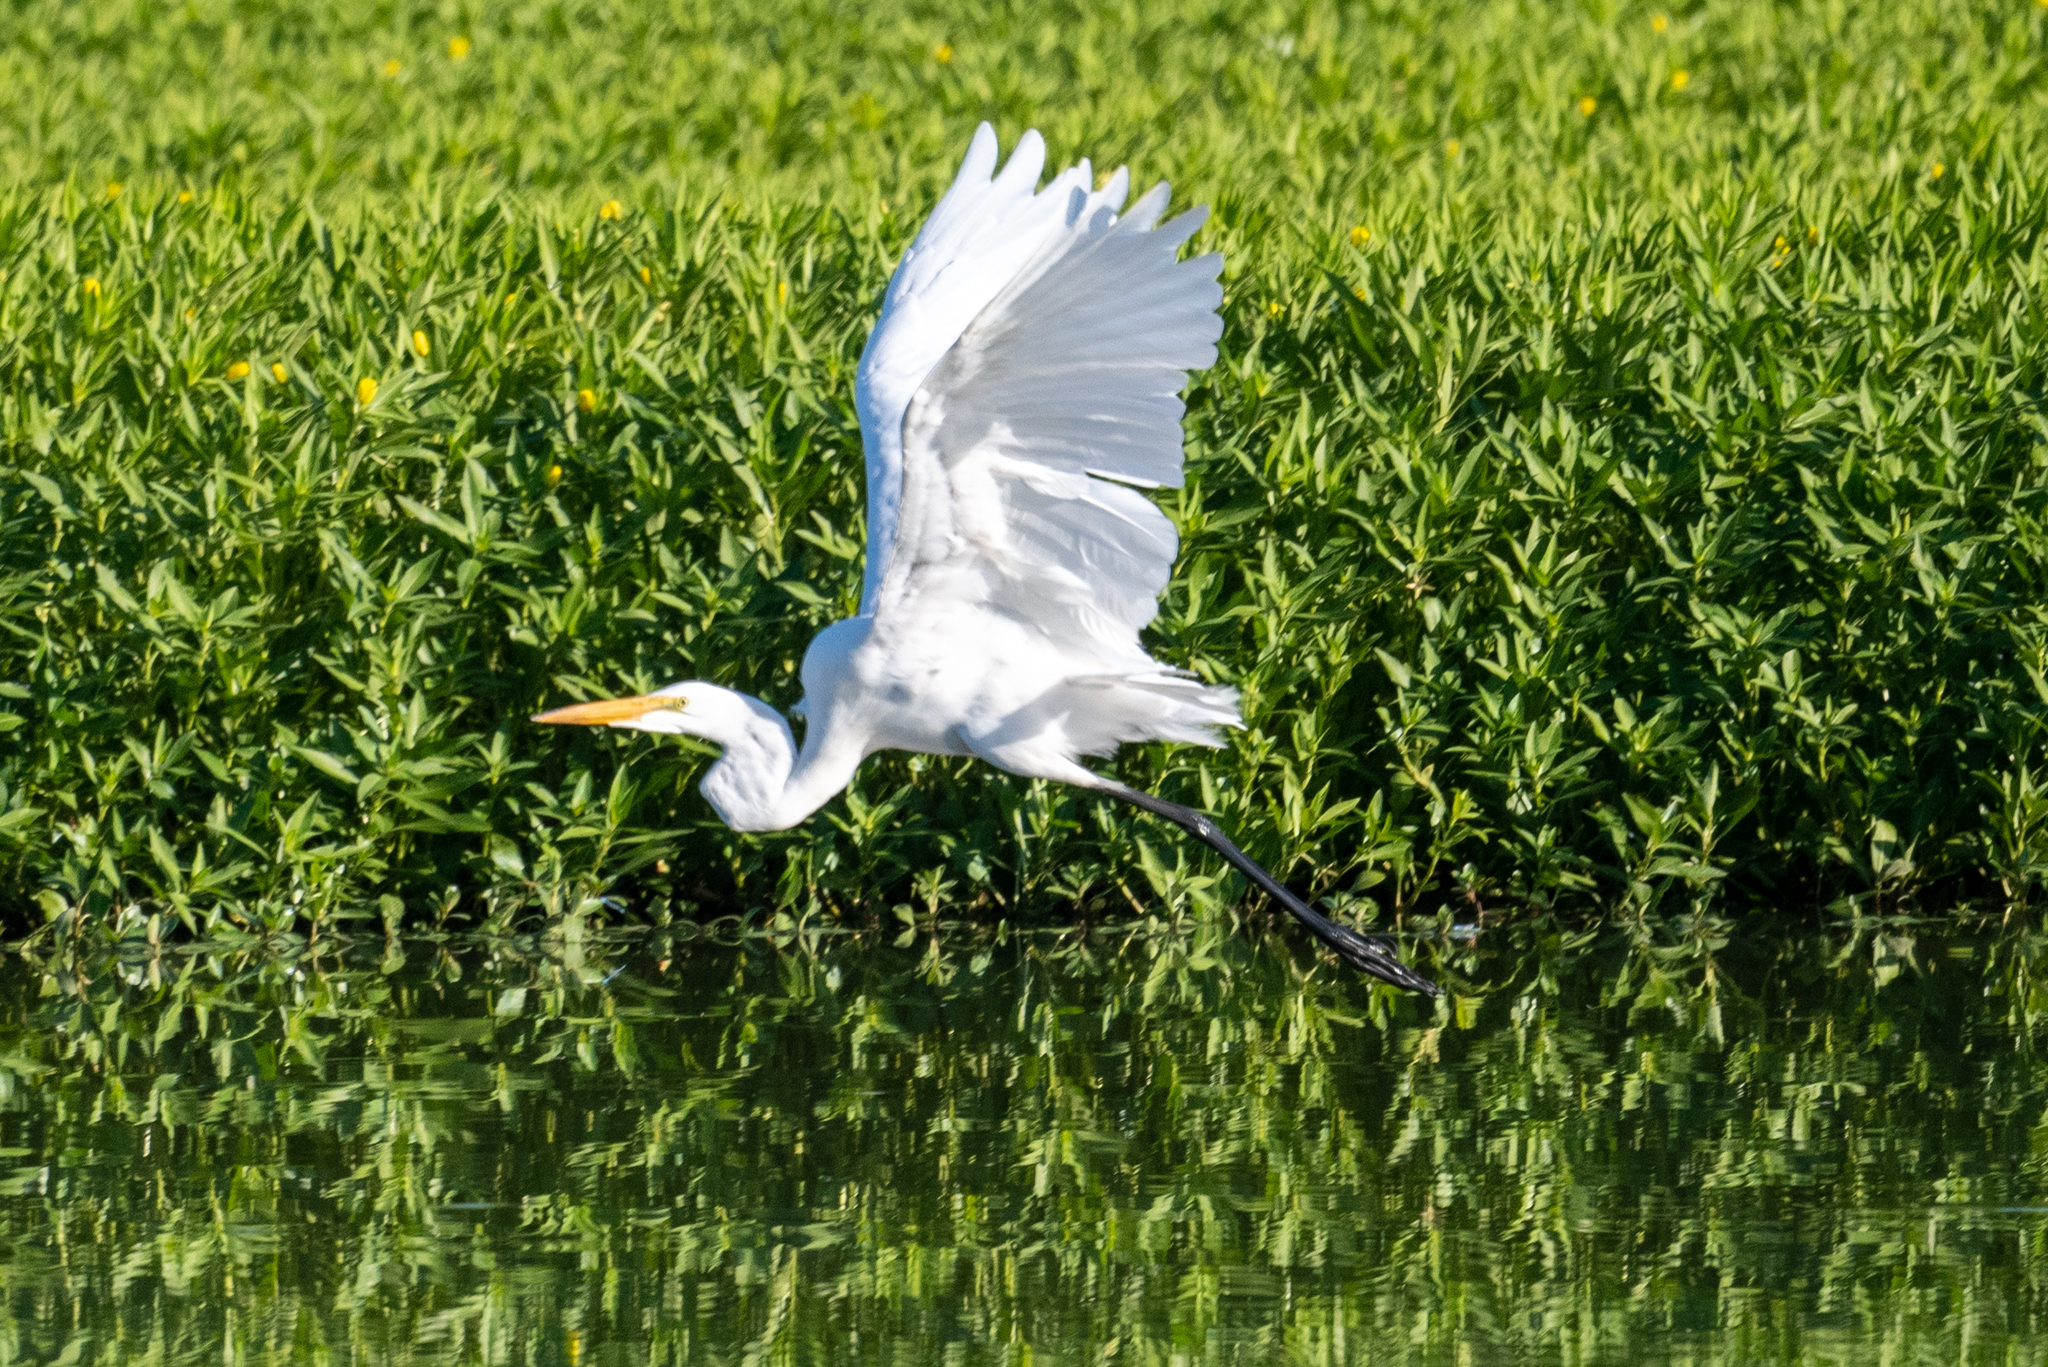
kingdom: Animalia
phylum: Chordata
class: Aves
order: Pelecaniformes
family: Ardeidae
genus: Ardea
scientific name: Ardea alba
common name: Great egret
